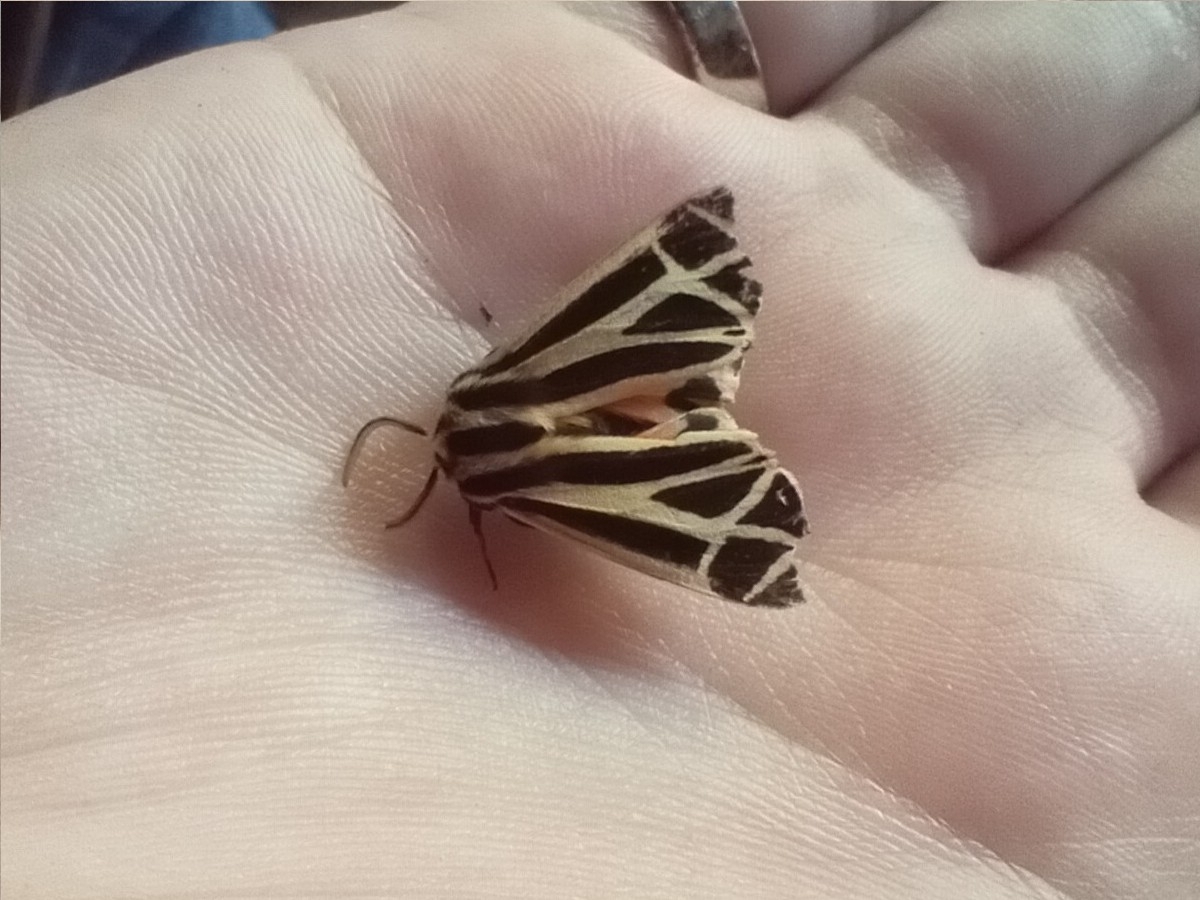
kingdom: Animalia
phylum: Arthropoda
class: Insecta
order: Lepidoptera
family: Erebidae
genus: Apantesis
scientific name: Apantesis phalerata
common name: Harnessed tiger moth
